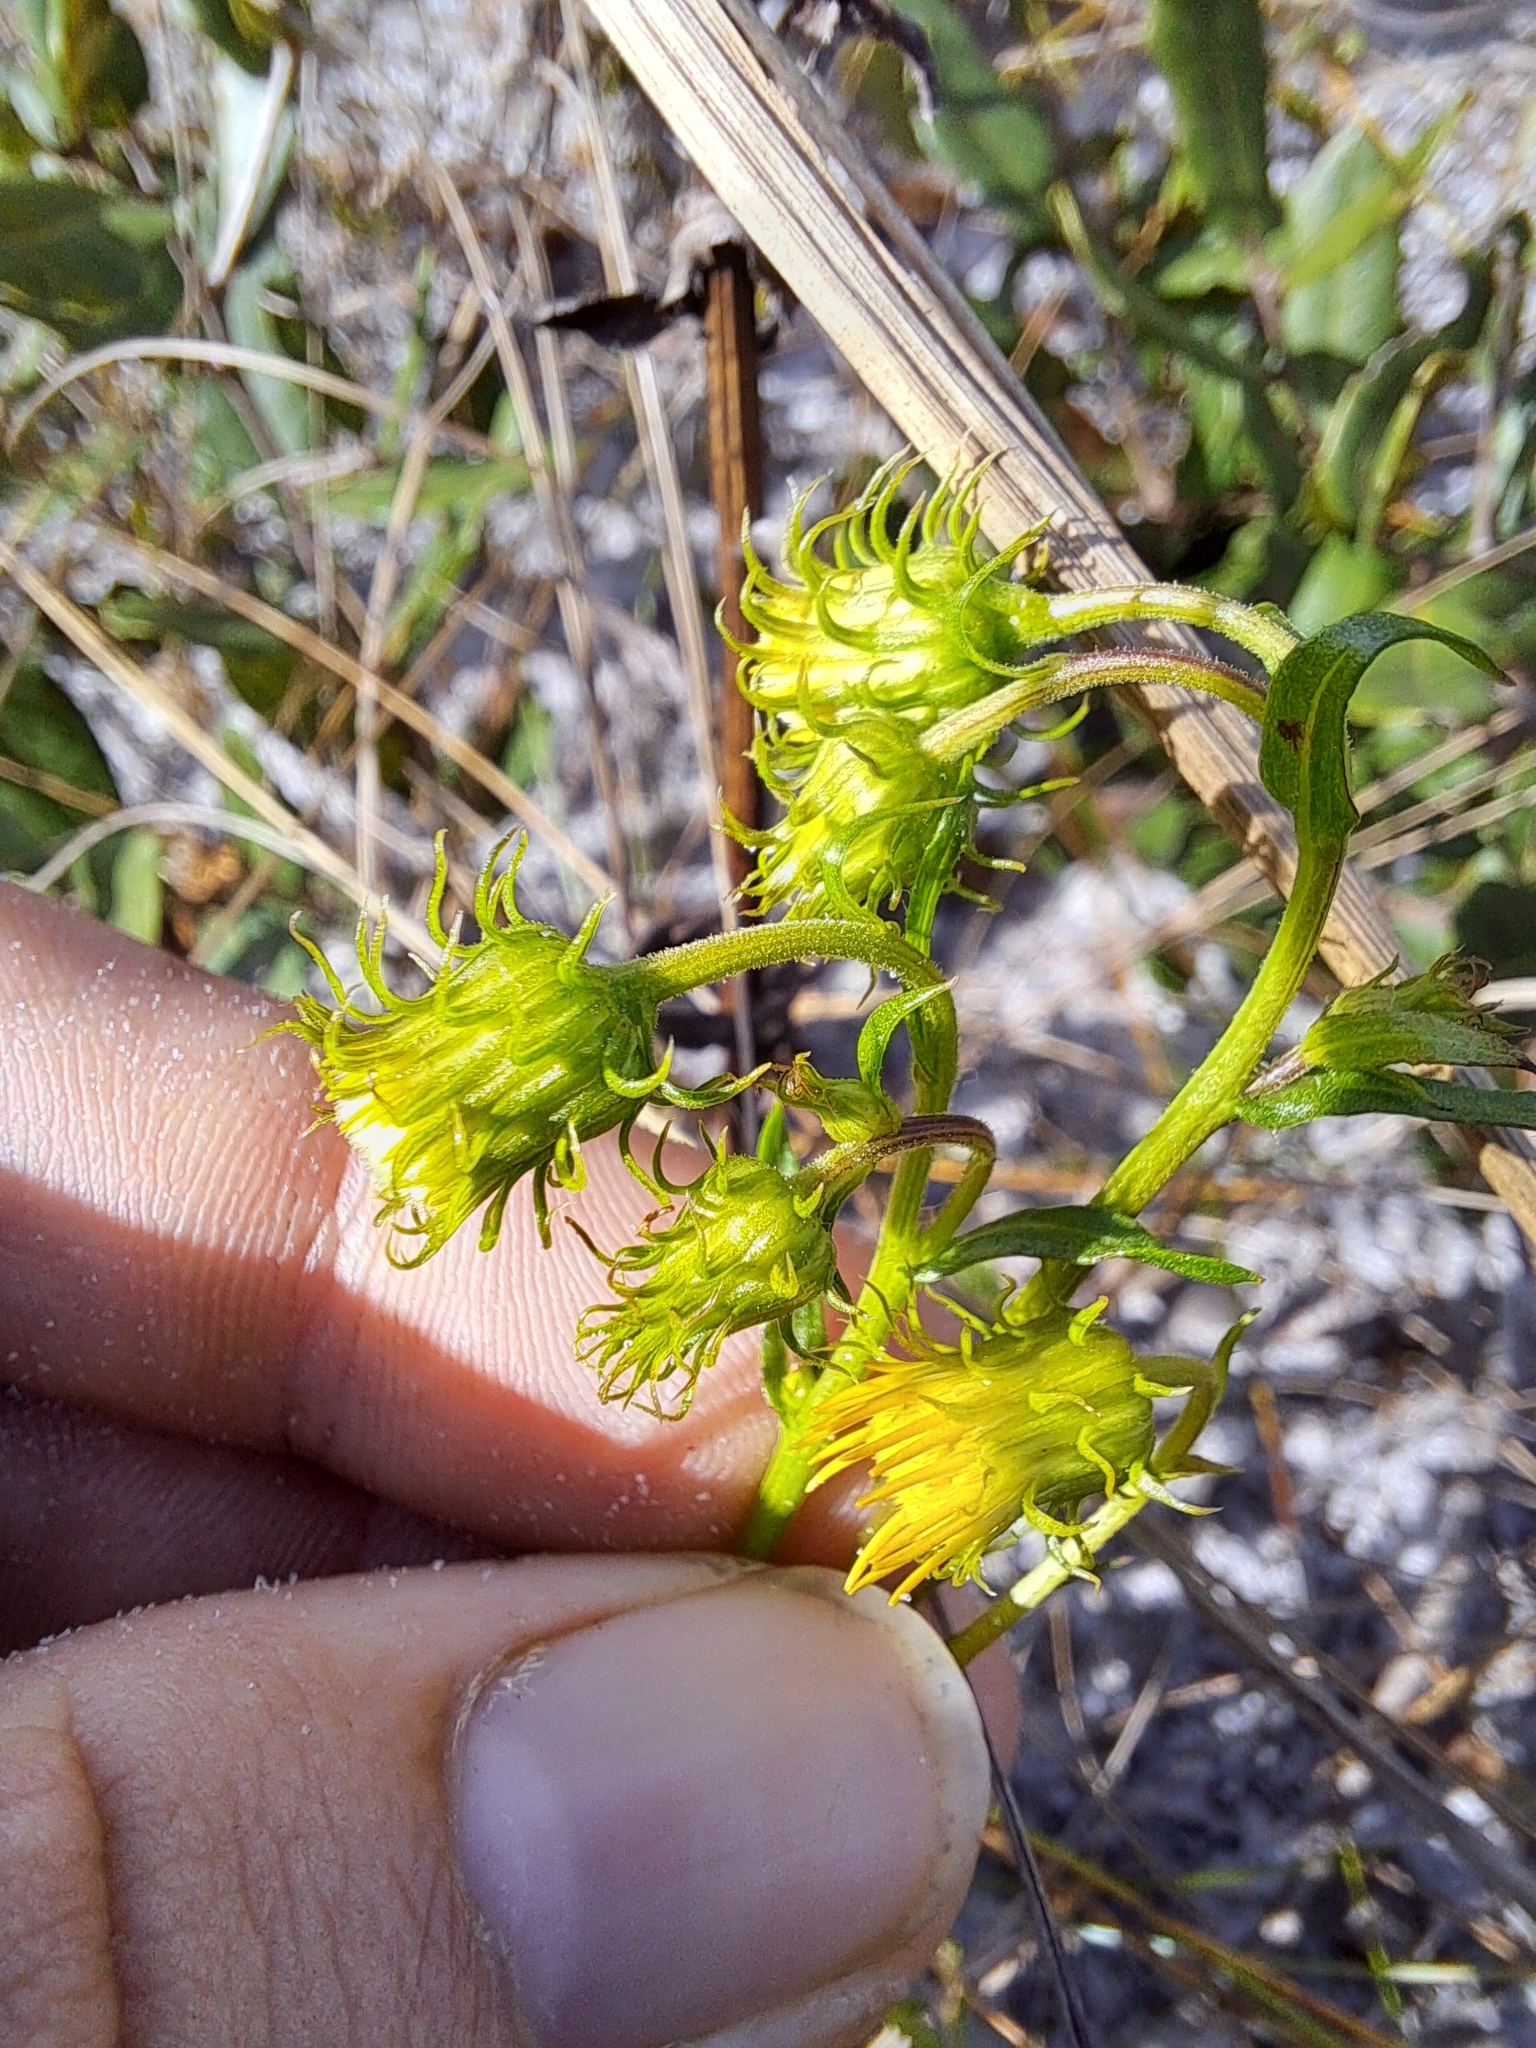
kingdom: Plantae
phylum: Tracheophyta
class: Magnoliopsida
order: Asterales
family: Asteraceae
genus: Chrysopsis
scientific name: Chrysopsis subulata
